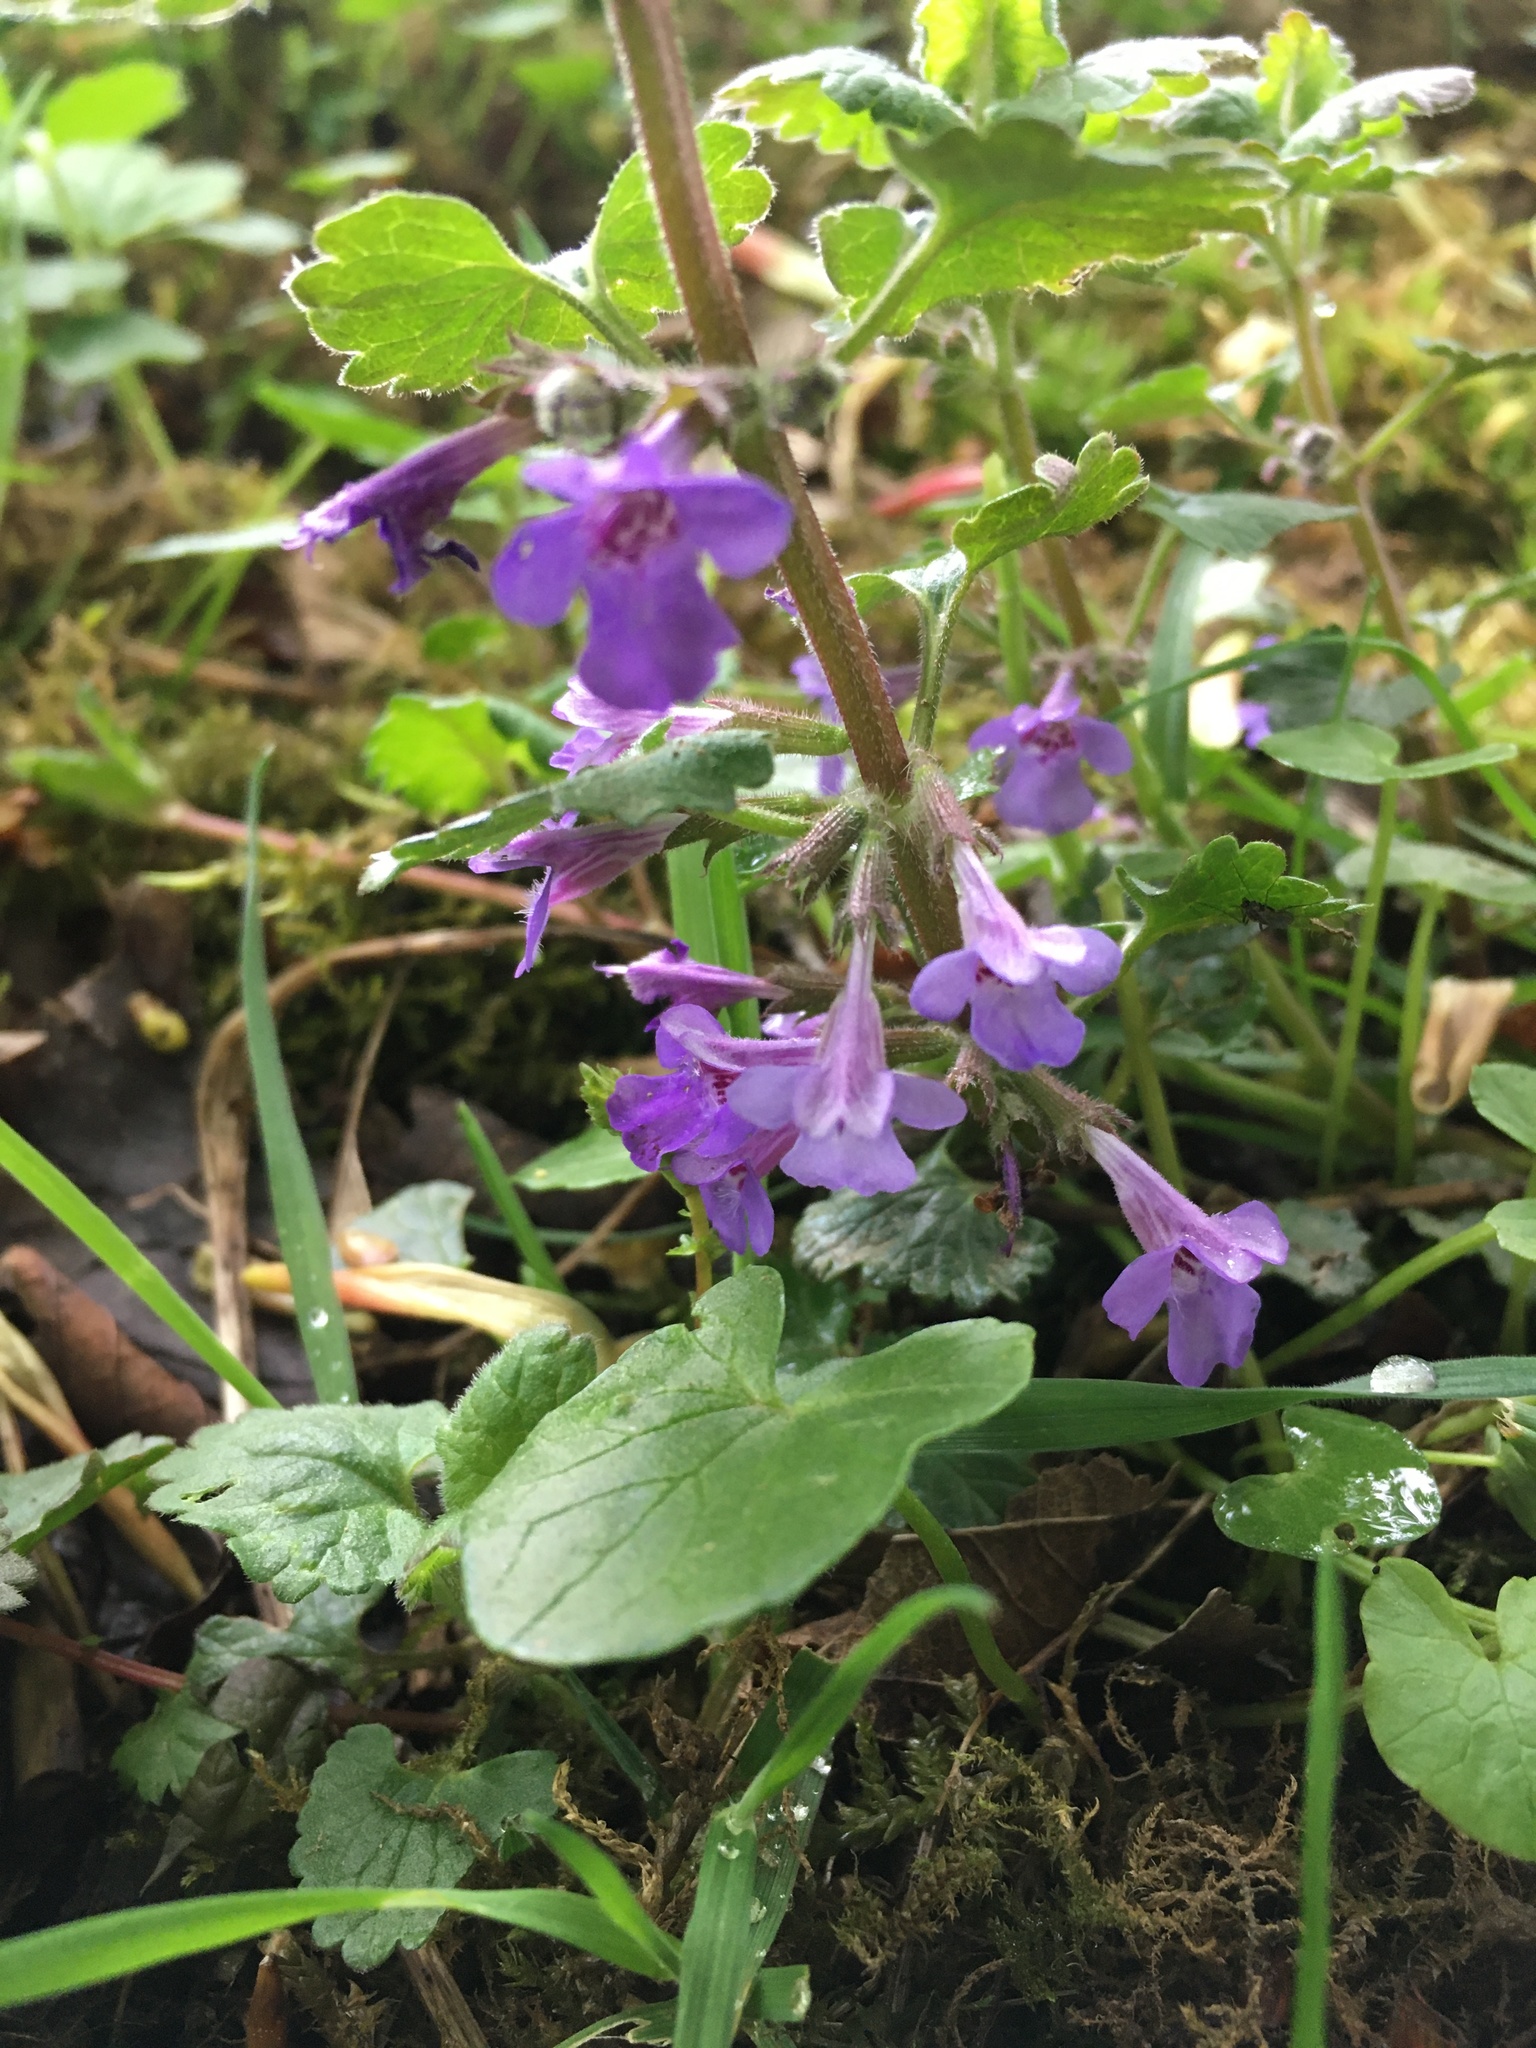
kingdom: Plantae
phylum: Tracheophyta
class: Magnoliopsida
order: Lamiales
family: Lamiaceae
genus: Glechoma
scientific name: Glechoma hederacea
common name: Ground ivy
